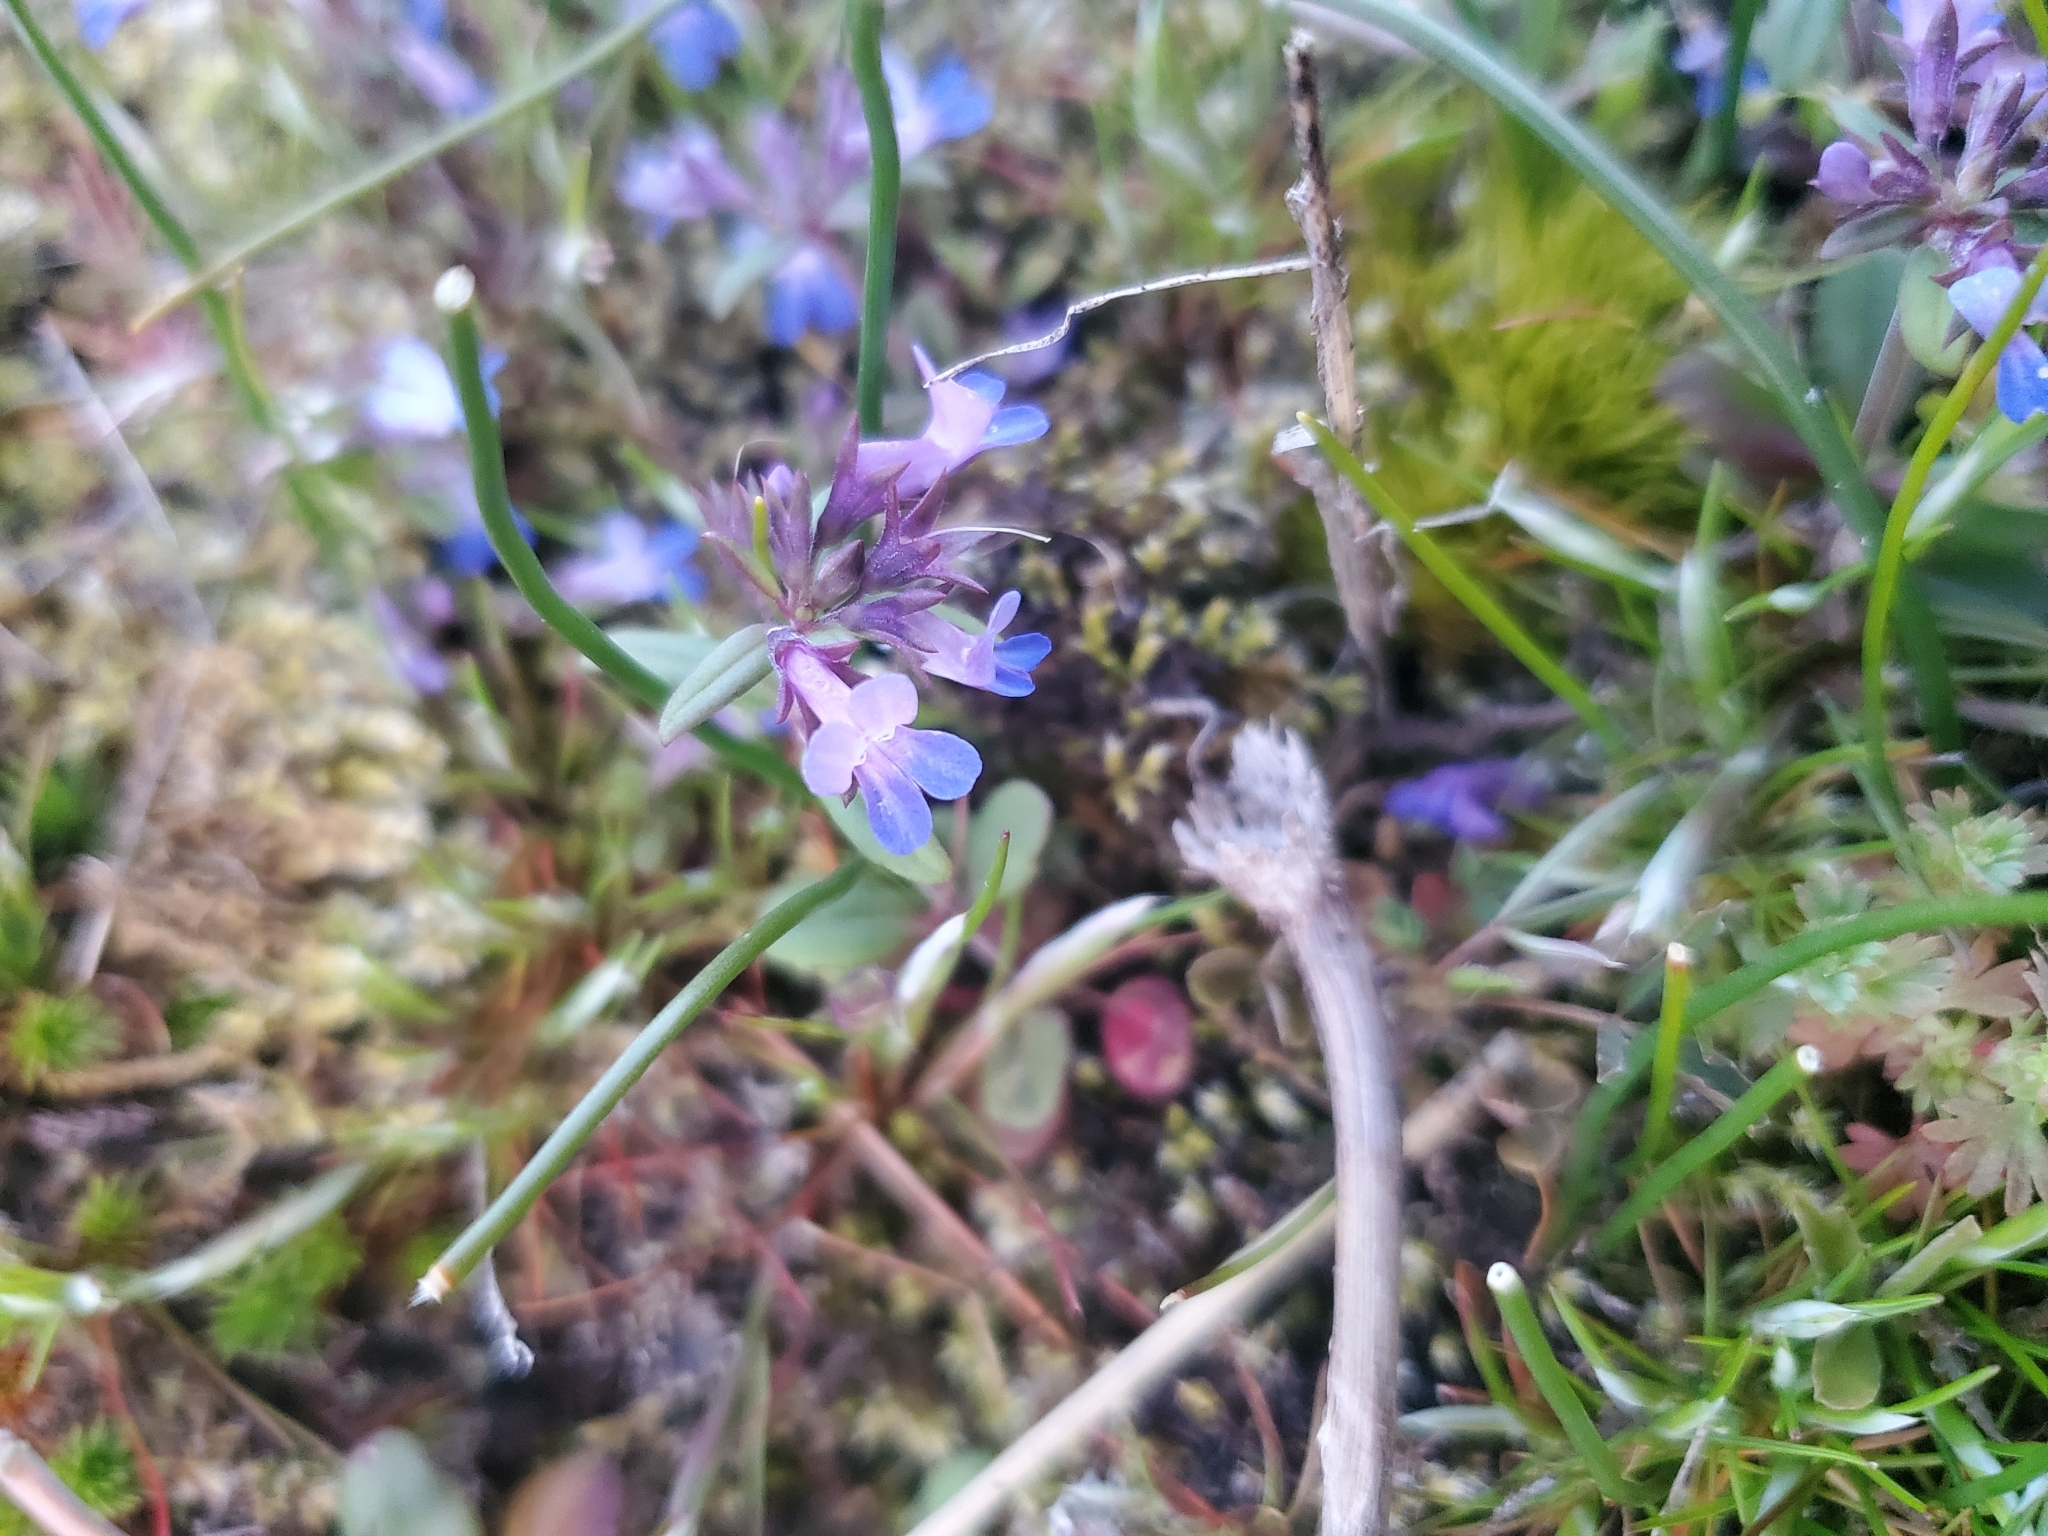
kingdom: Plantae
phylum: Tracheophyta
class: Magnoliopsida
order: Lamiales
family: Plantaginaceae
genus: Collinsia
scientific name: Collinsia parviflora
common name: Blue-lips
